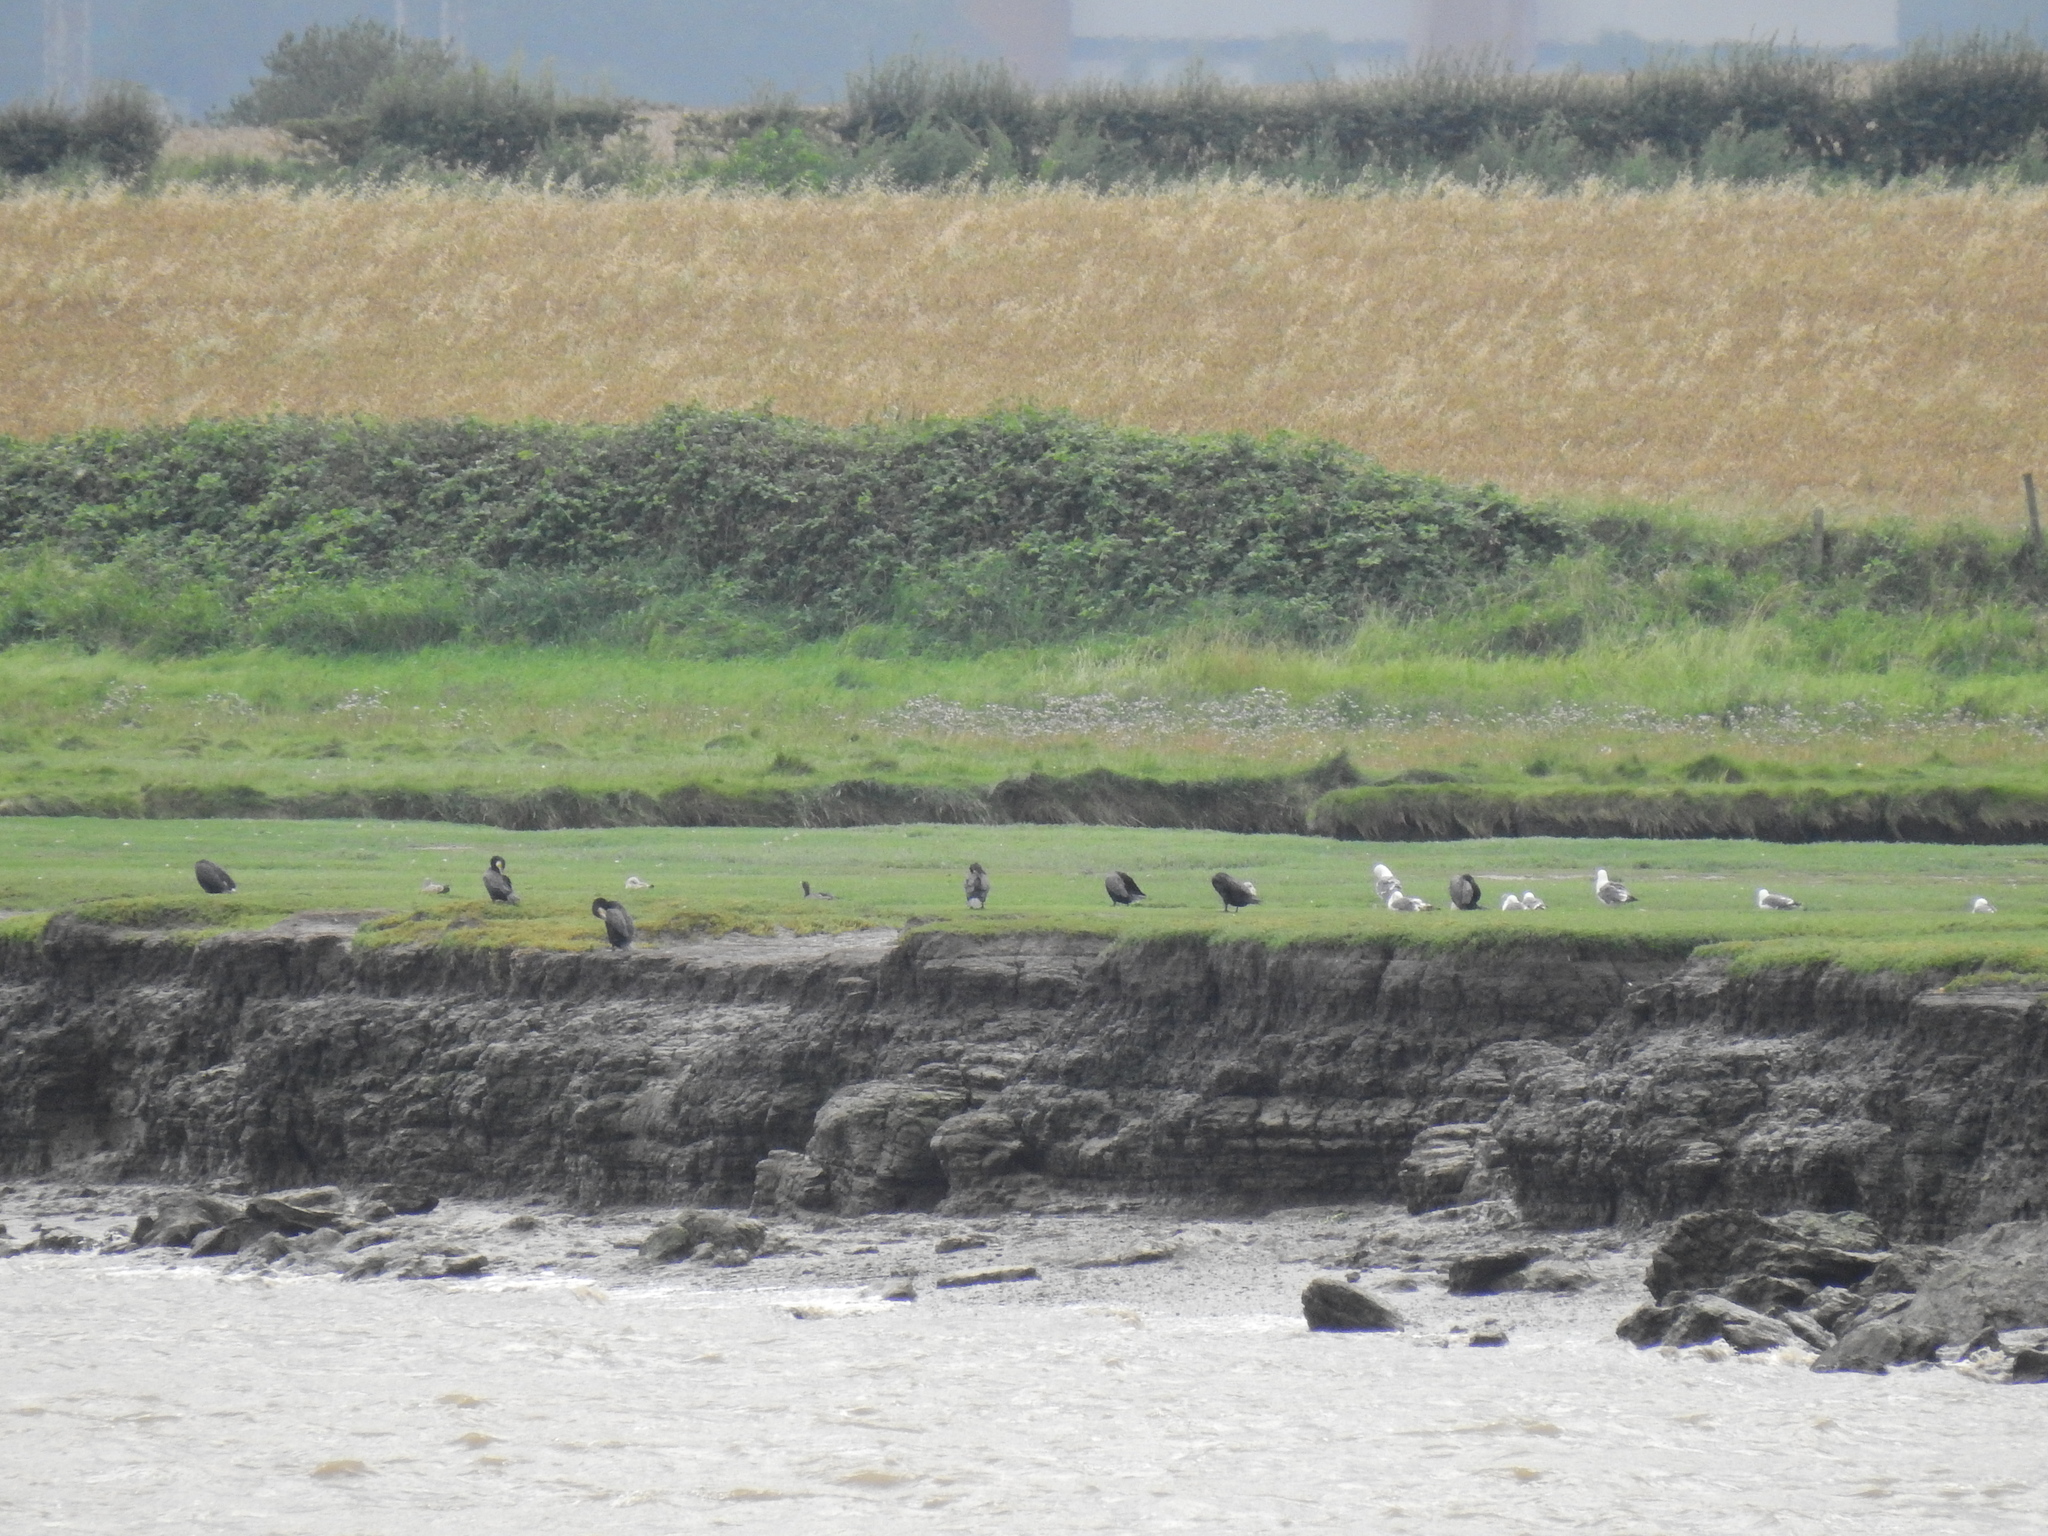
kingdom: Animalia
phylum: Chordata
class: Aves
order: Suliformes
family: Phalacrocoracidae
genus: Phalacrocorax
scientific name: Phalacrocorax carbo
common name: Great cormorant
